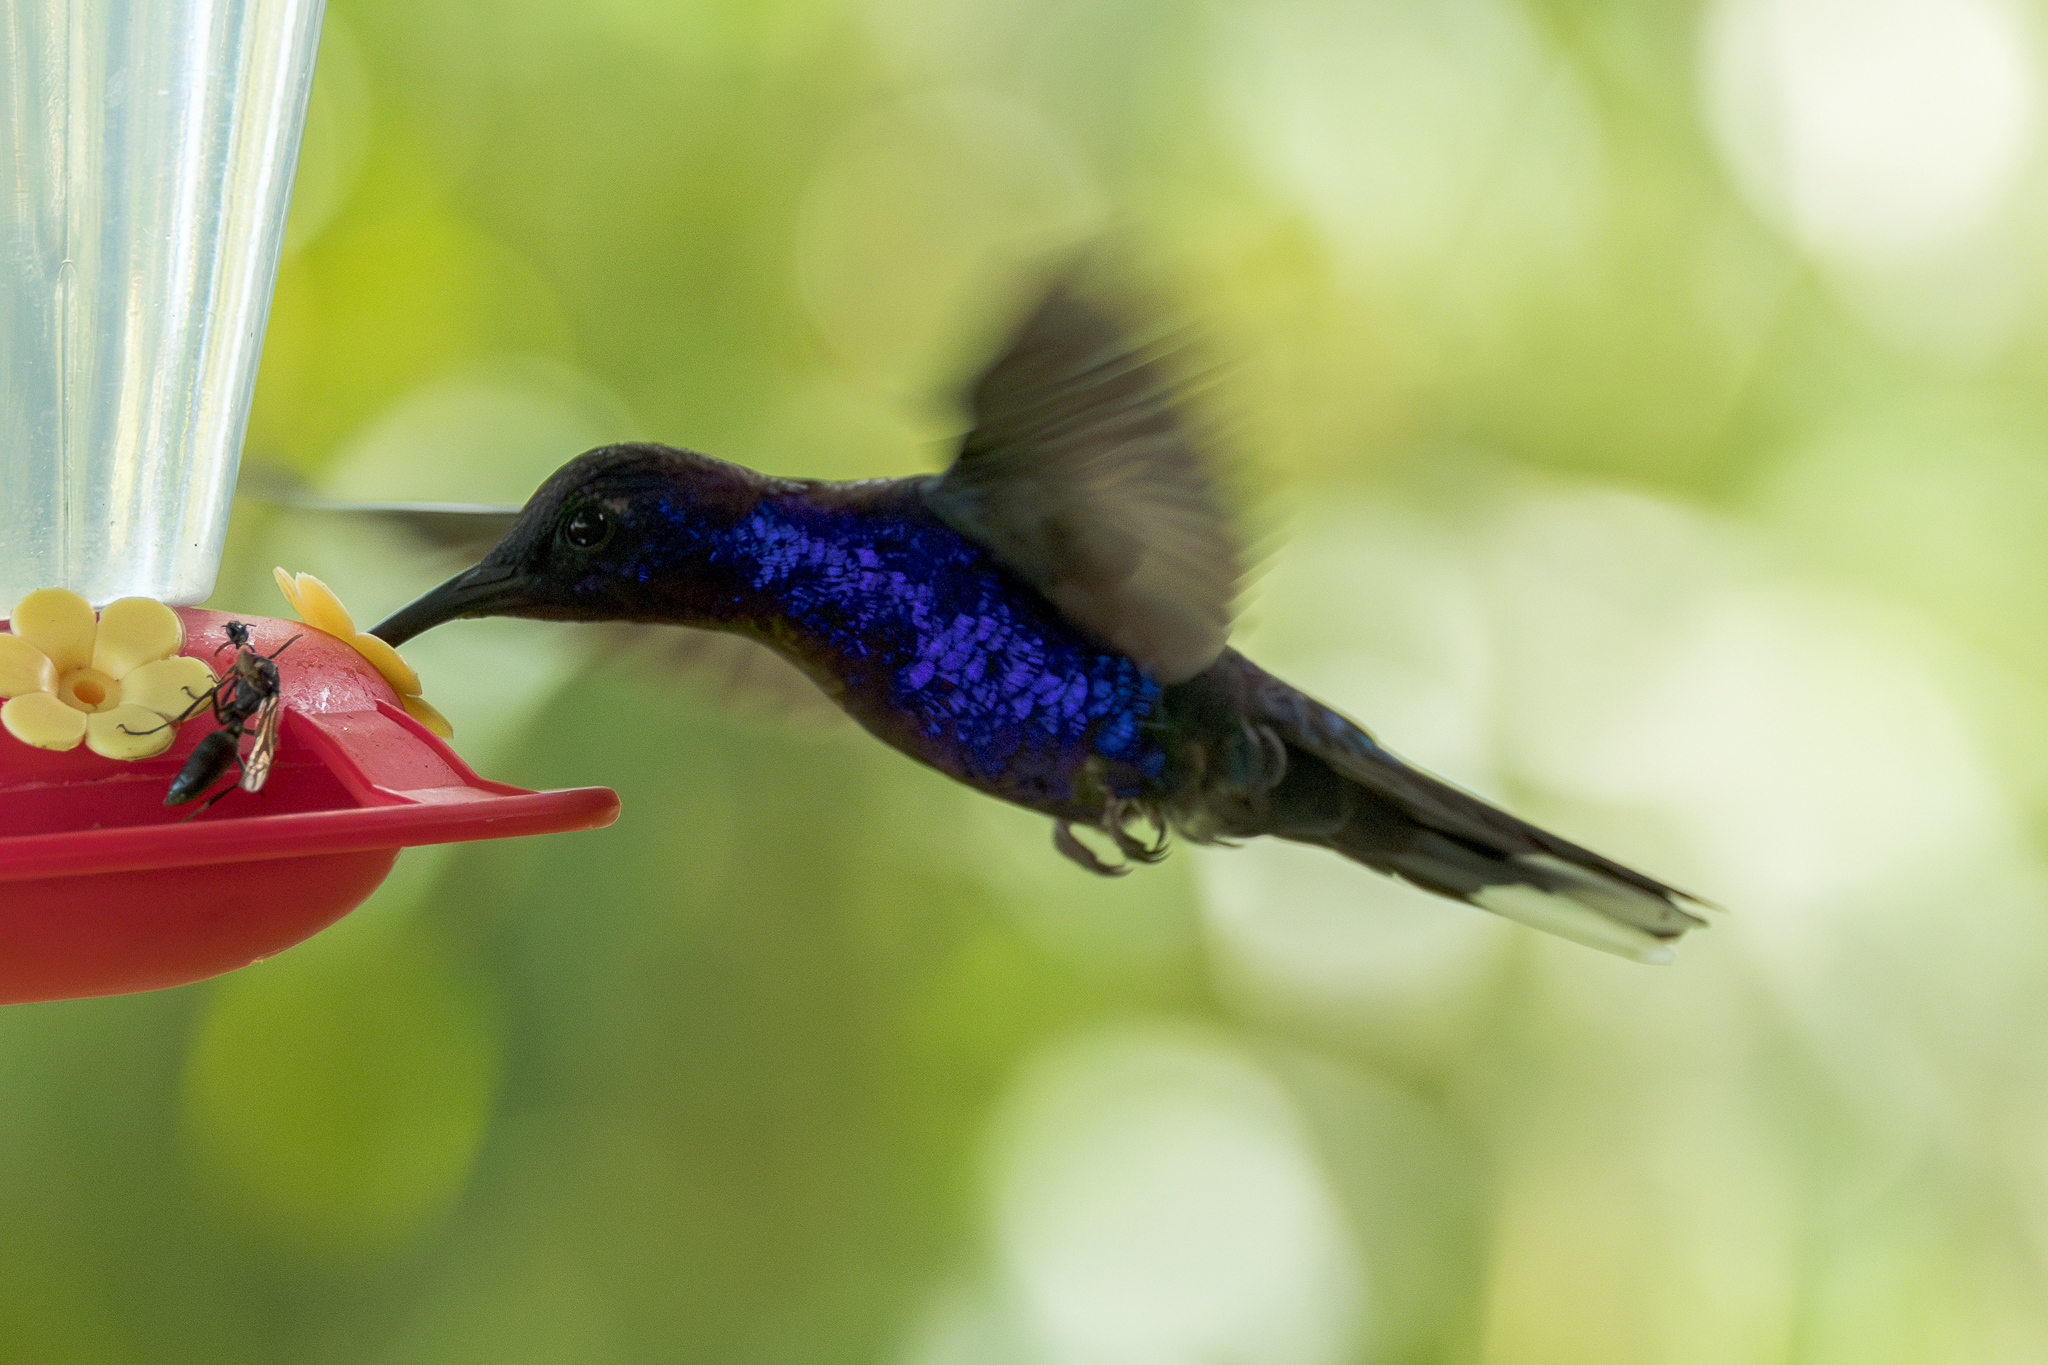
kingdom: Animalia
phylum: Chordata
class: Aves
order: Apodiformes
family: Trochilidae
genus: Campylopterus
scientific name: Campylopterus hemileucurus
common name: Violet sabrewing
